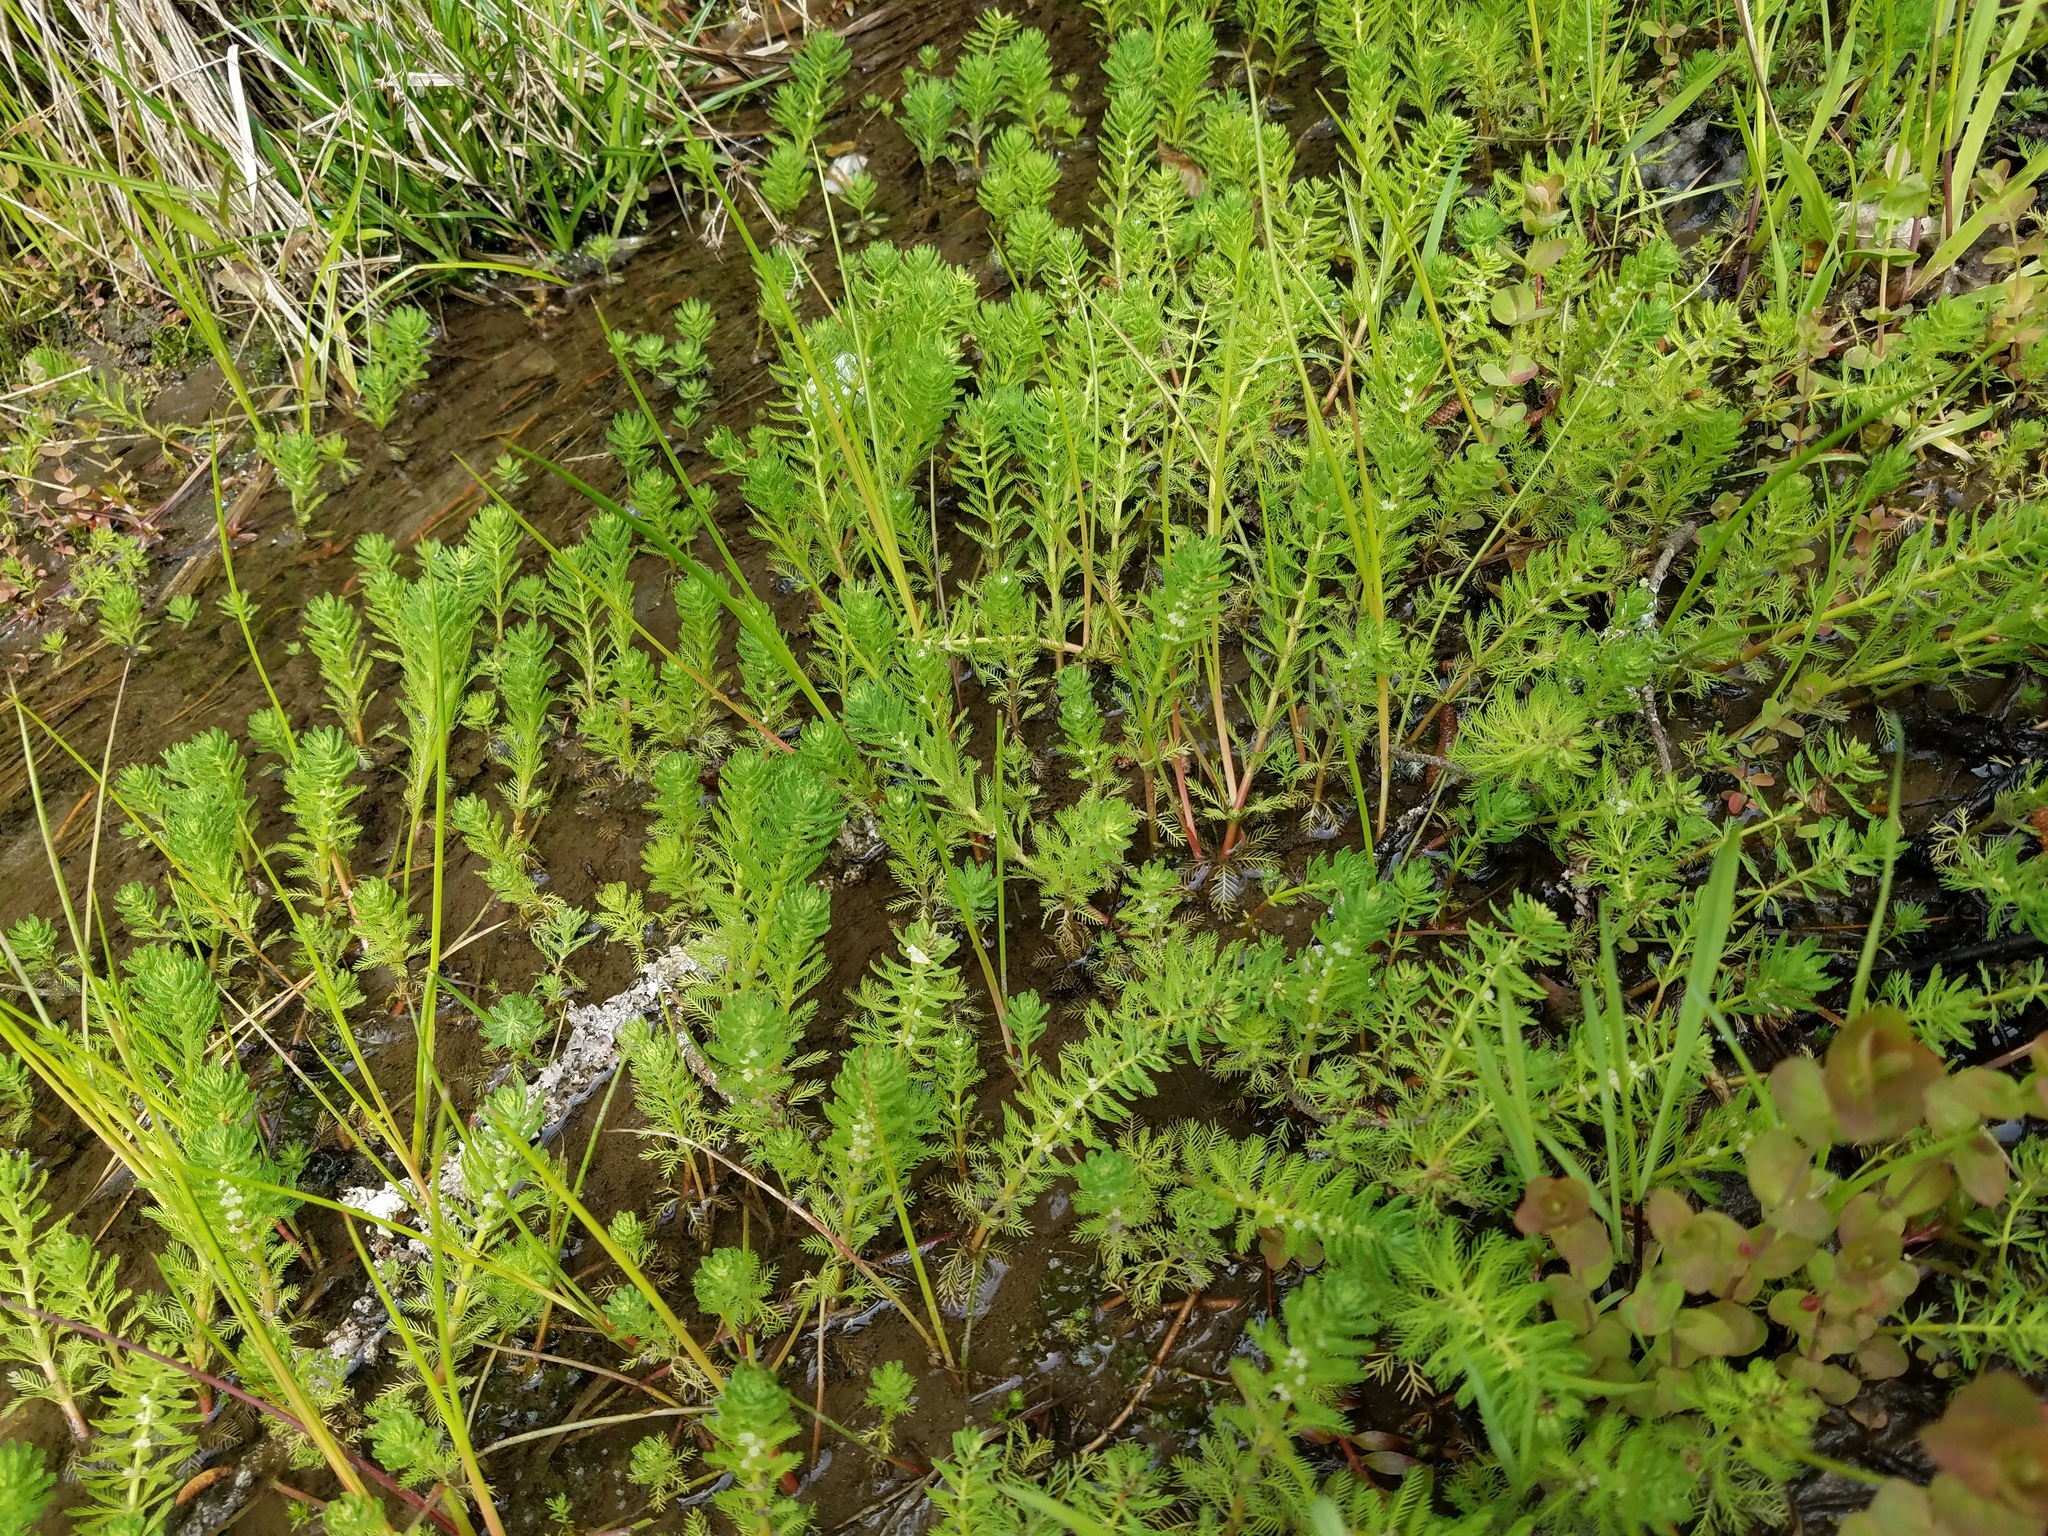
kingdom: Plantae
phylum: Tracheophyta
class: Magnoliopsida
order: Saxifragales
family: Haloragaceae
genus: Myriophyllum
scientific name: Myriophyllum aquaticum
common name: Parrot's feather
